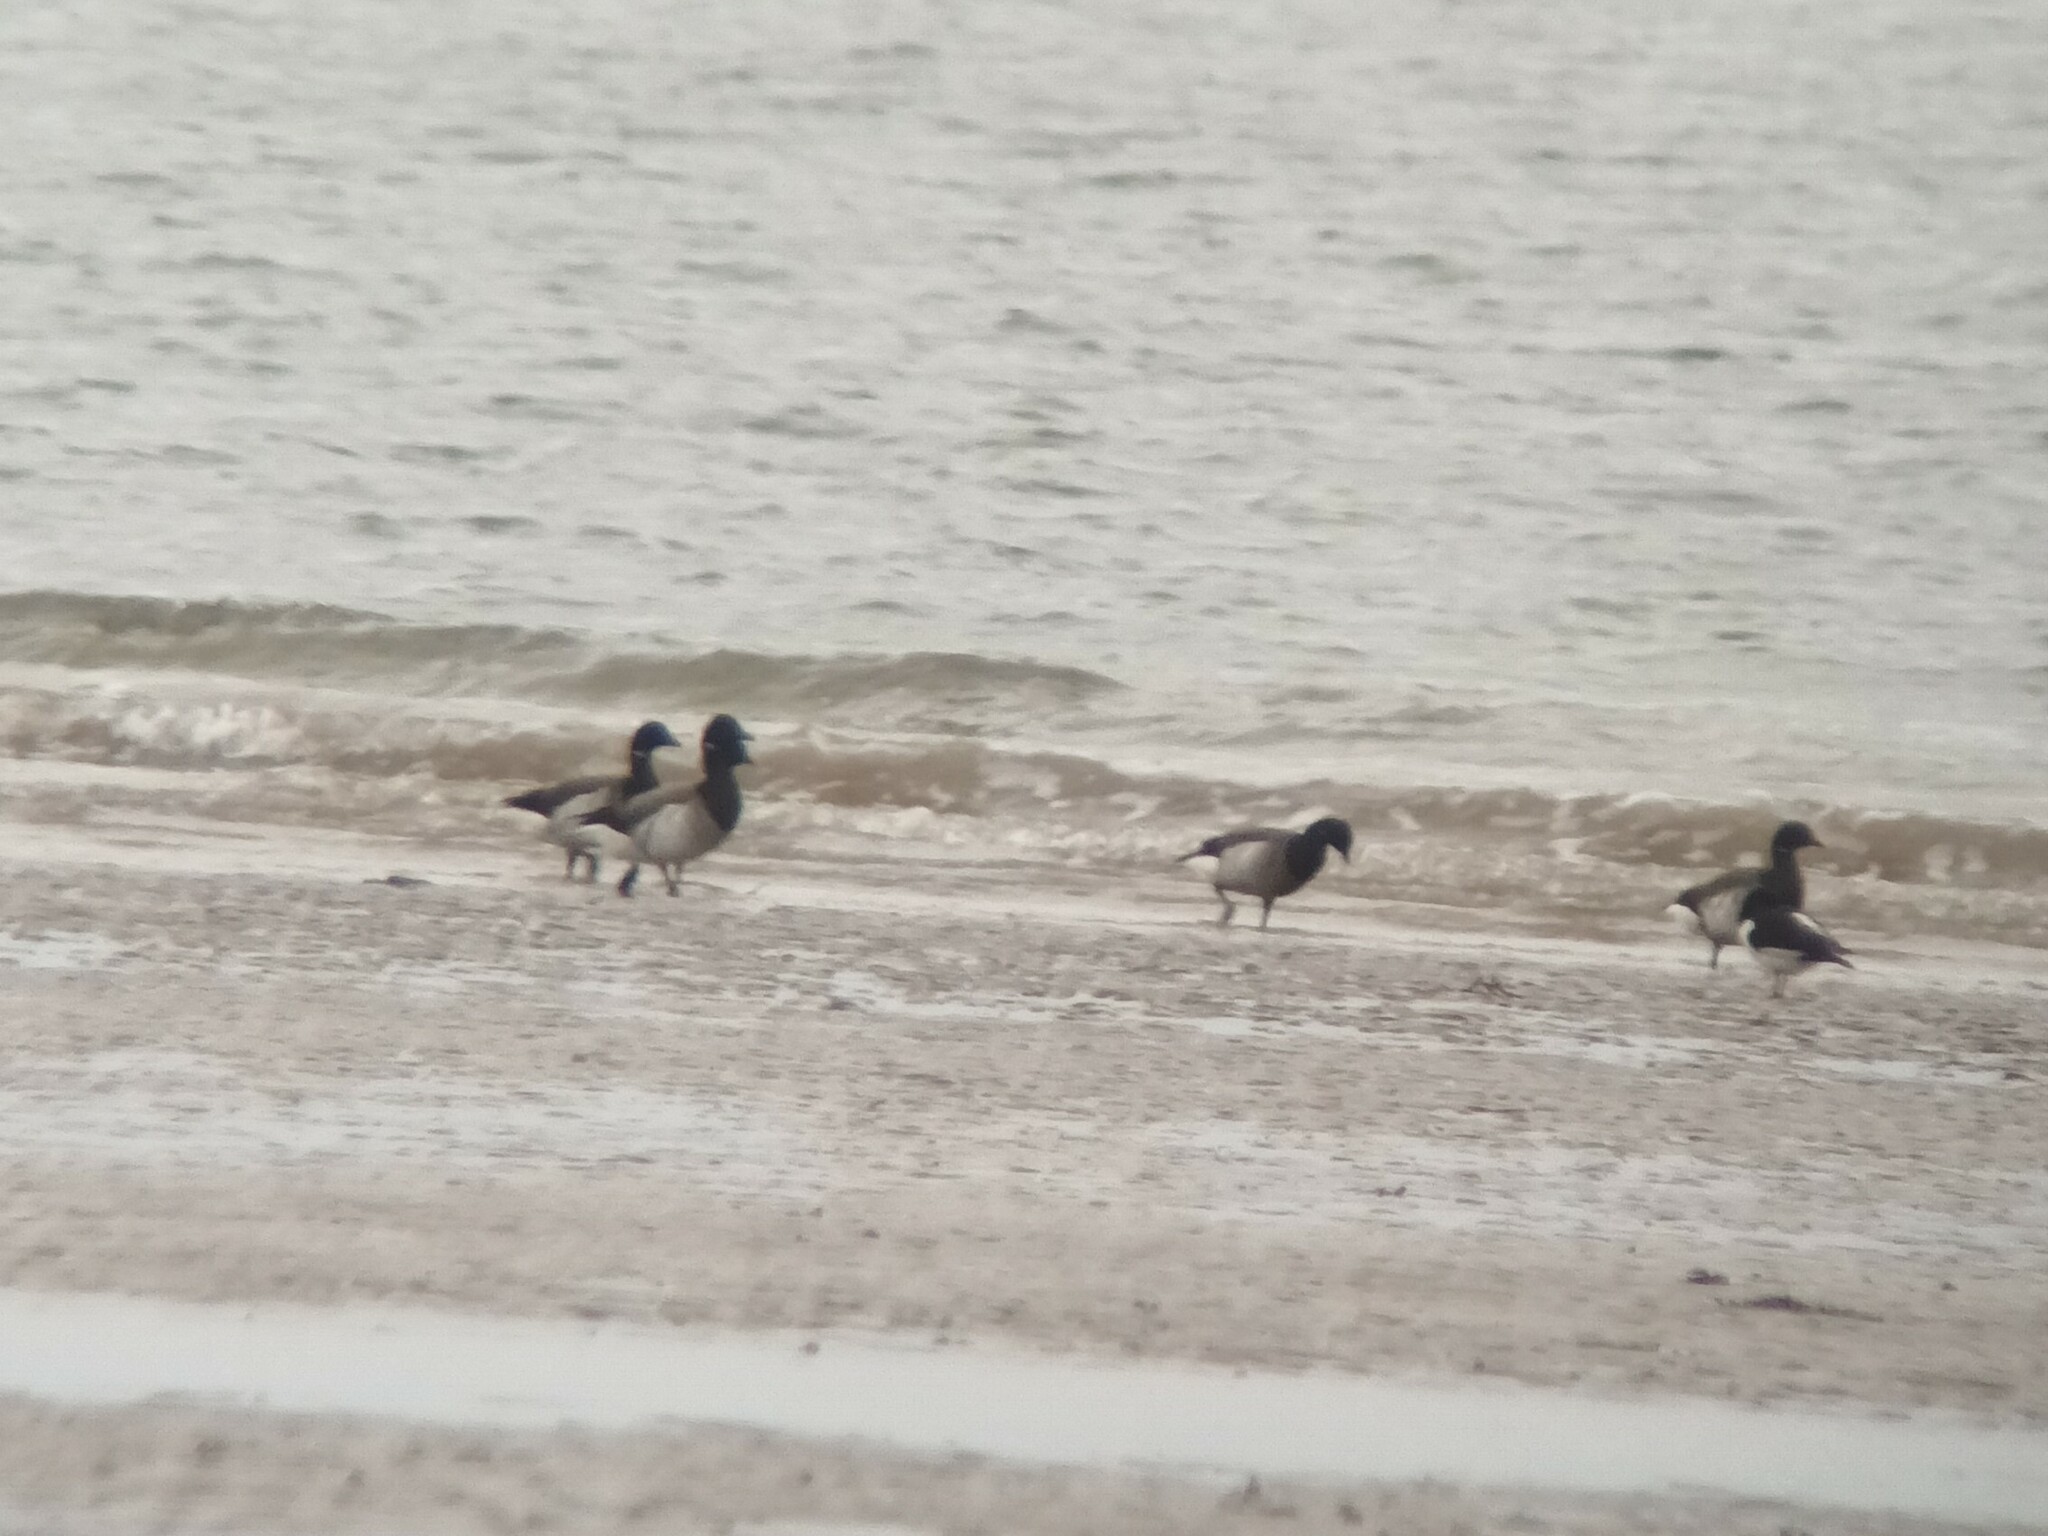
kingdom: Animalia
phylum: Chordata
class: Aves
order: Anseriformes
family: Anatidae
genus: Branta
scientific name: Branta bernicla
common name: Brant goose
